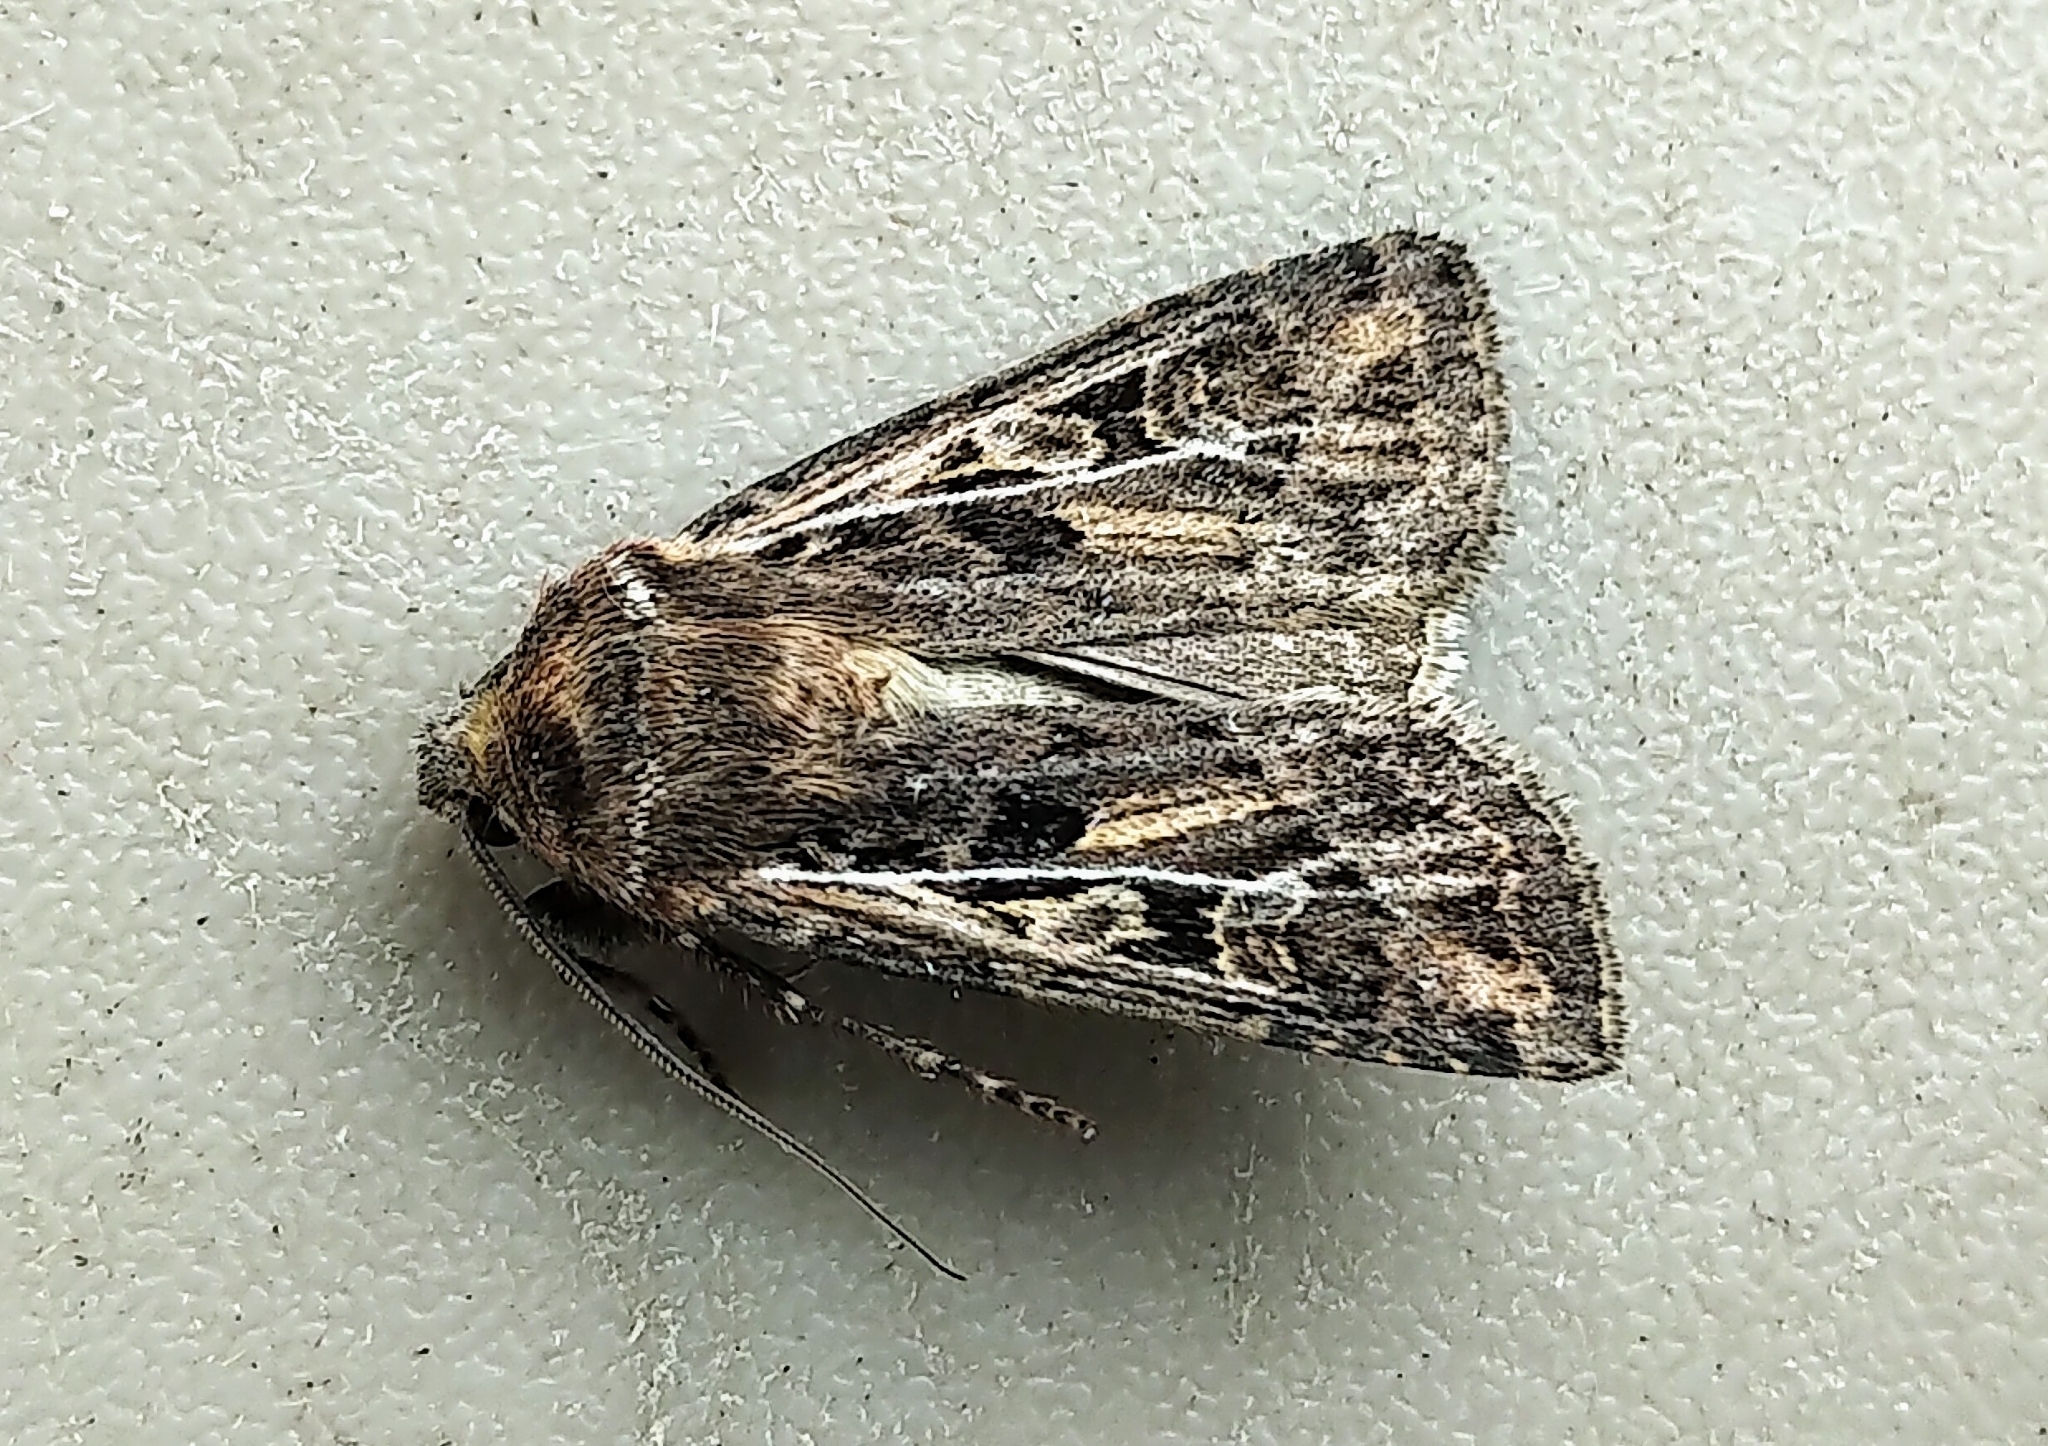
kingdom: Animalia
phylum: Arthropoda
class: Insecta
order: Lepidoptera
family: Noctuidae
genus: Euxoa
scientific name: Euxoa ridingsiana
